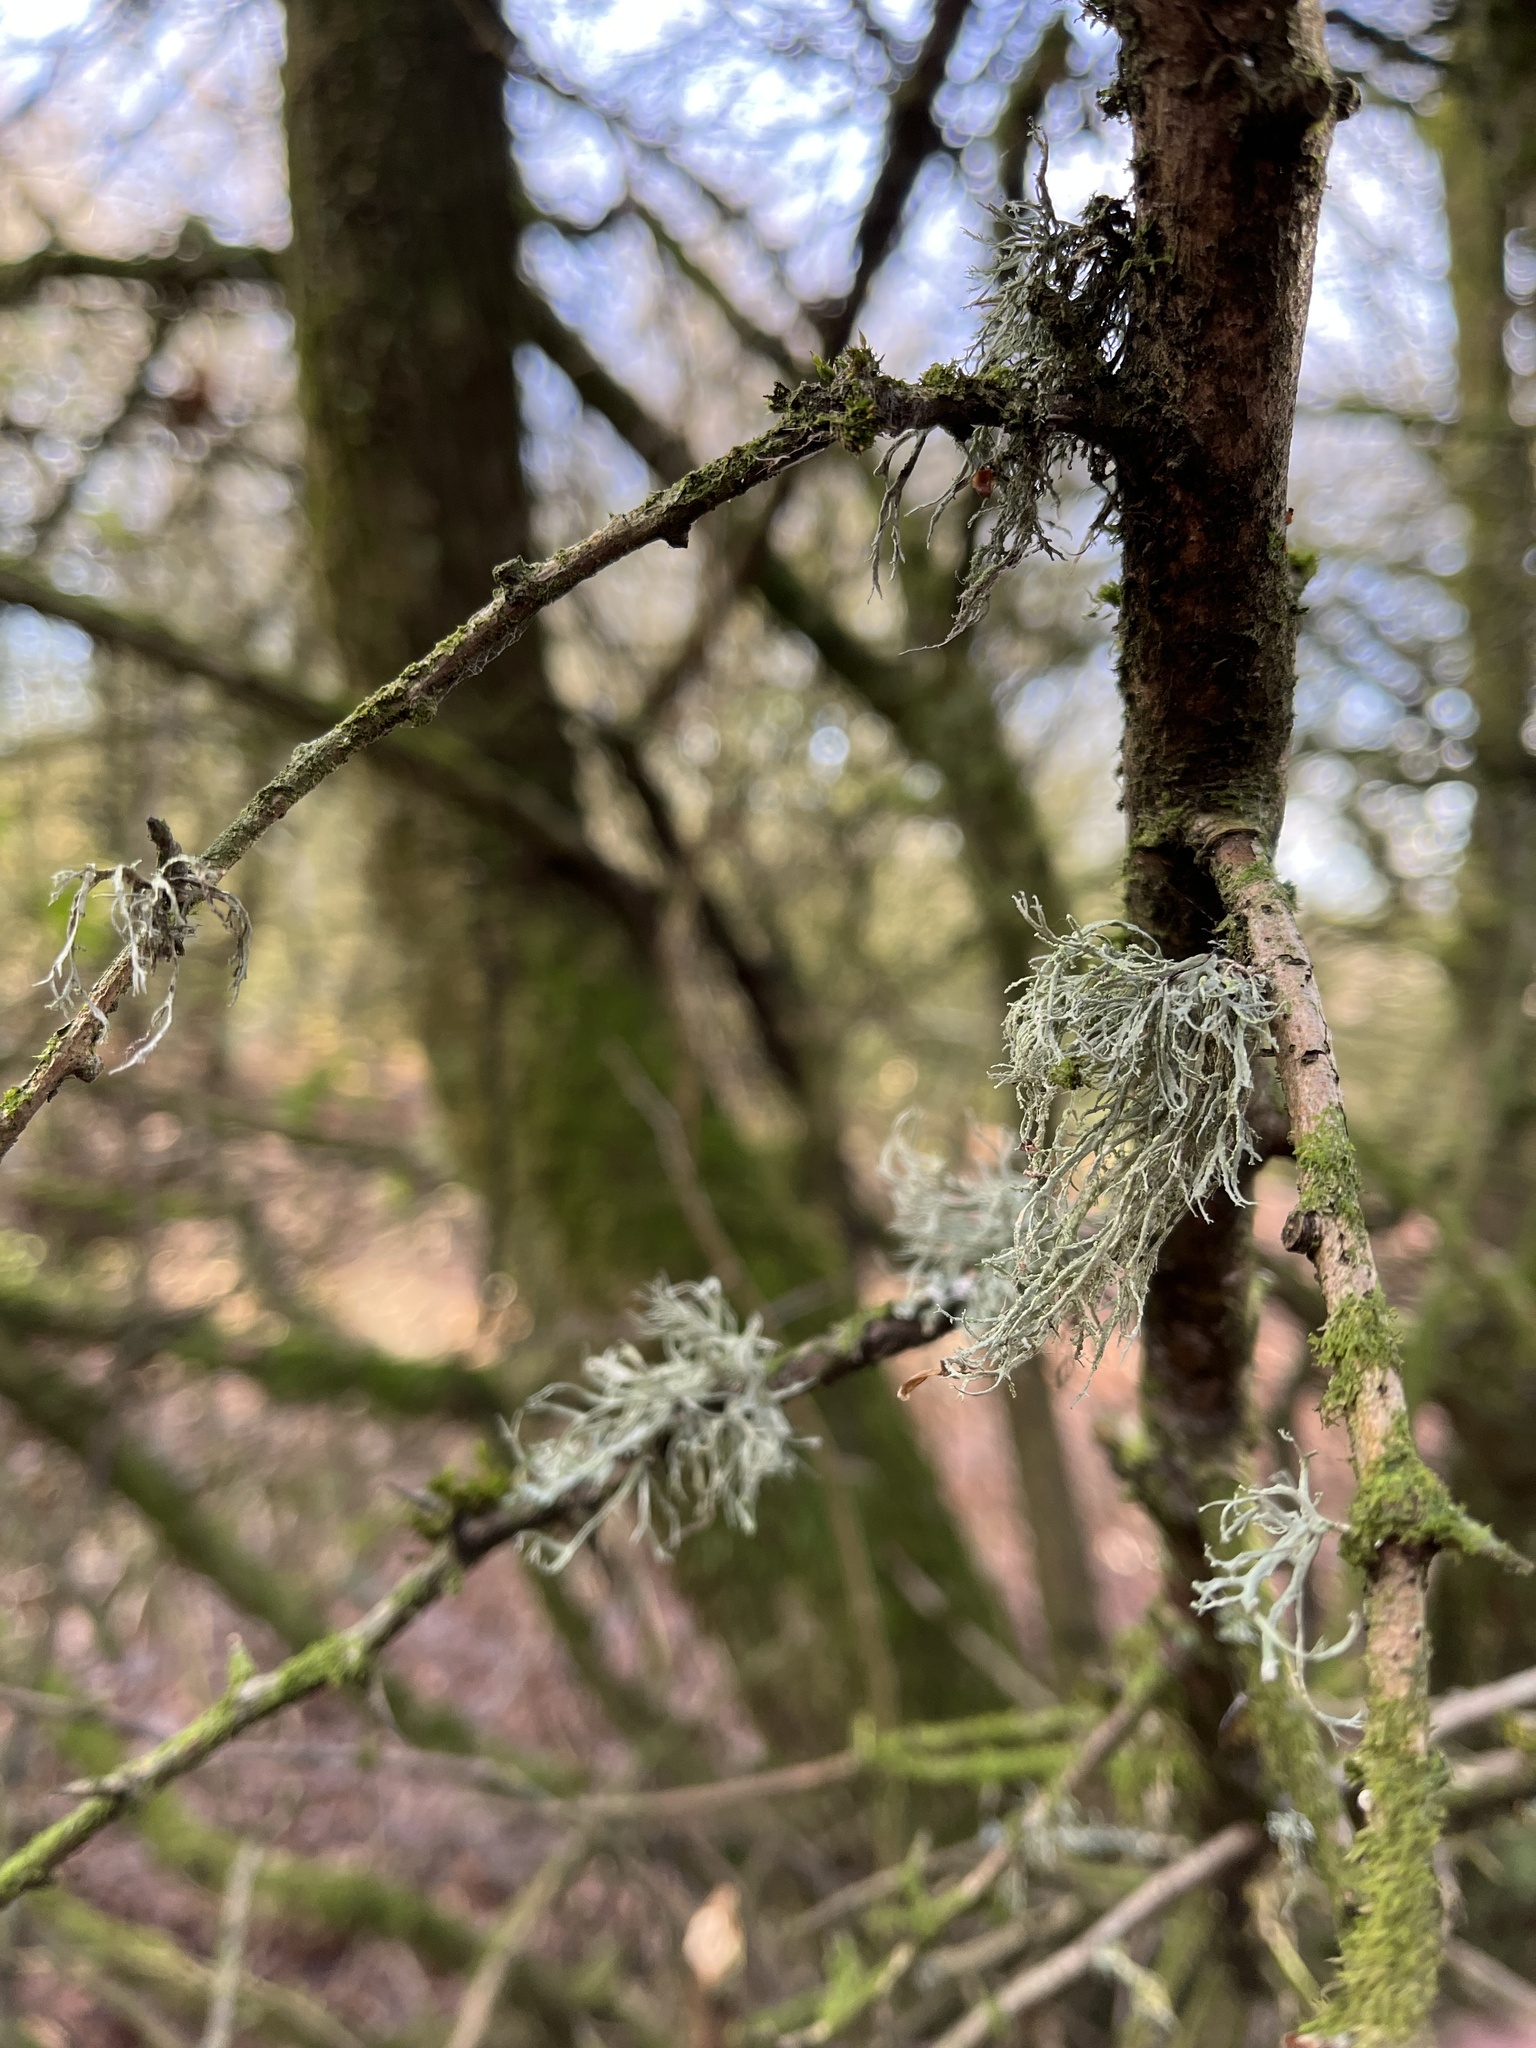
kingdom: Fungi
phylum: Ascomycota
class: Lecanoromycetes
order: Lecanorales
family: Ramalinaceae
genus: Ramalina
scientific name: Ramalina farinacea
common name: Farinose cartilage lichen
